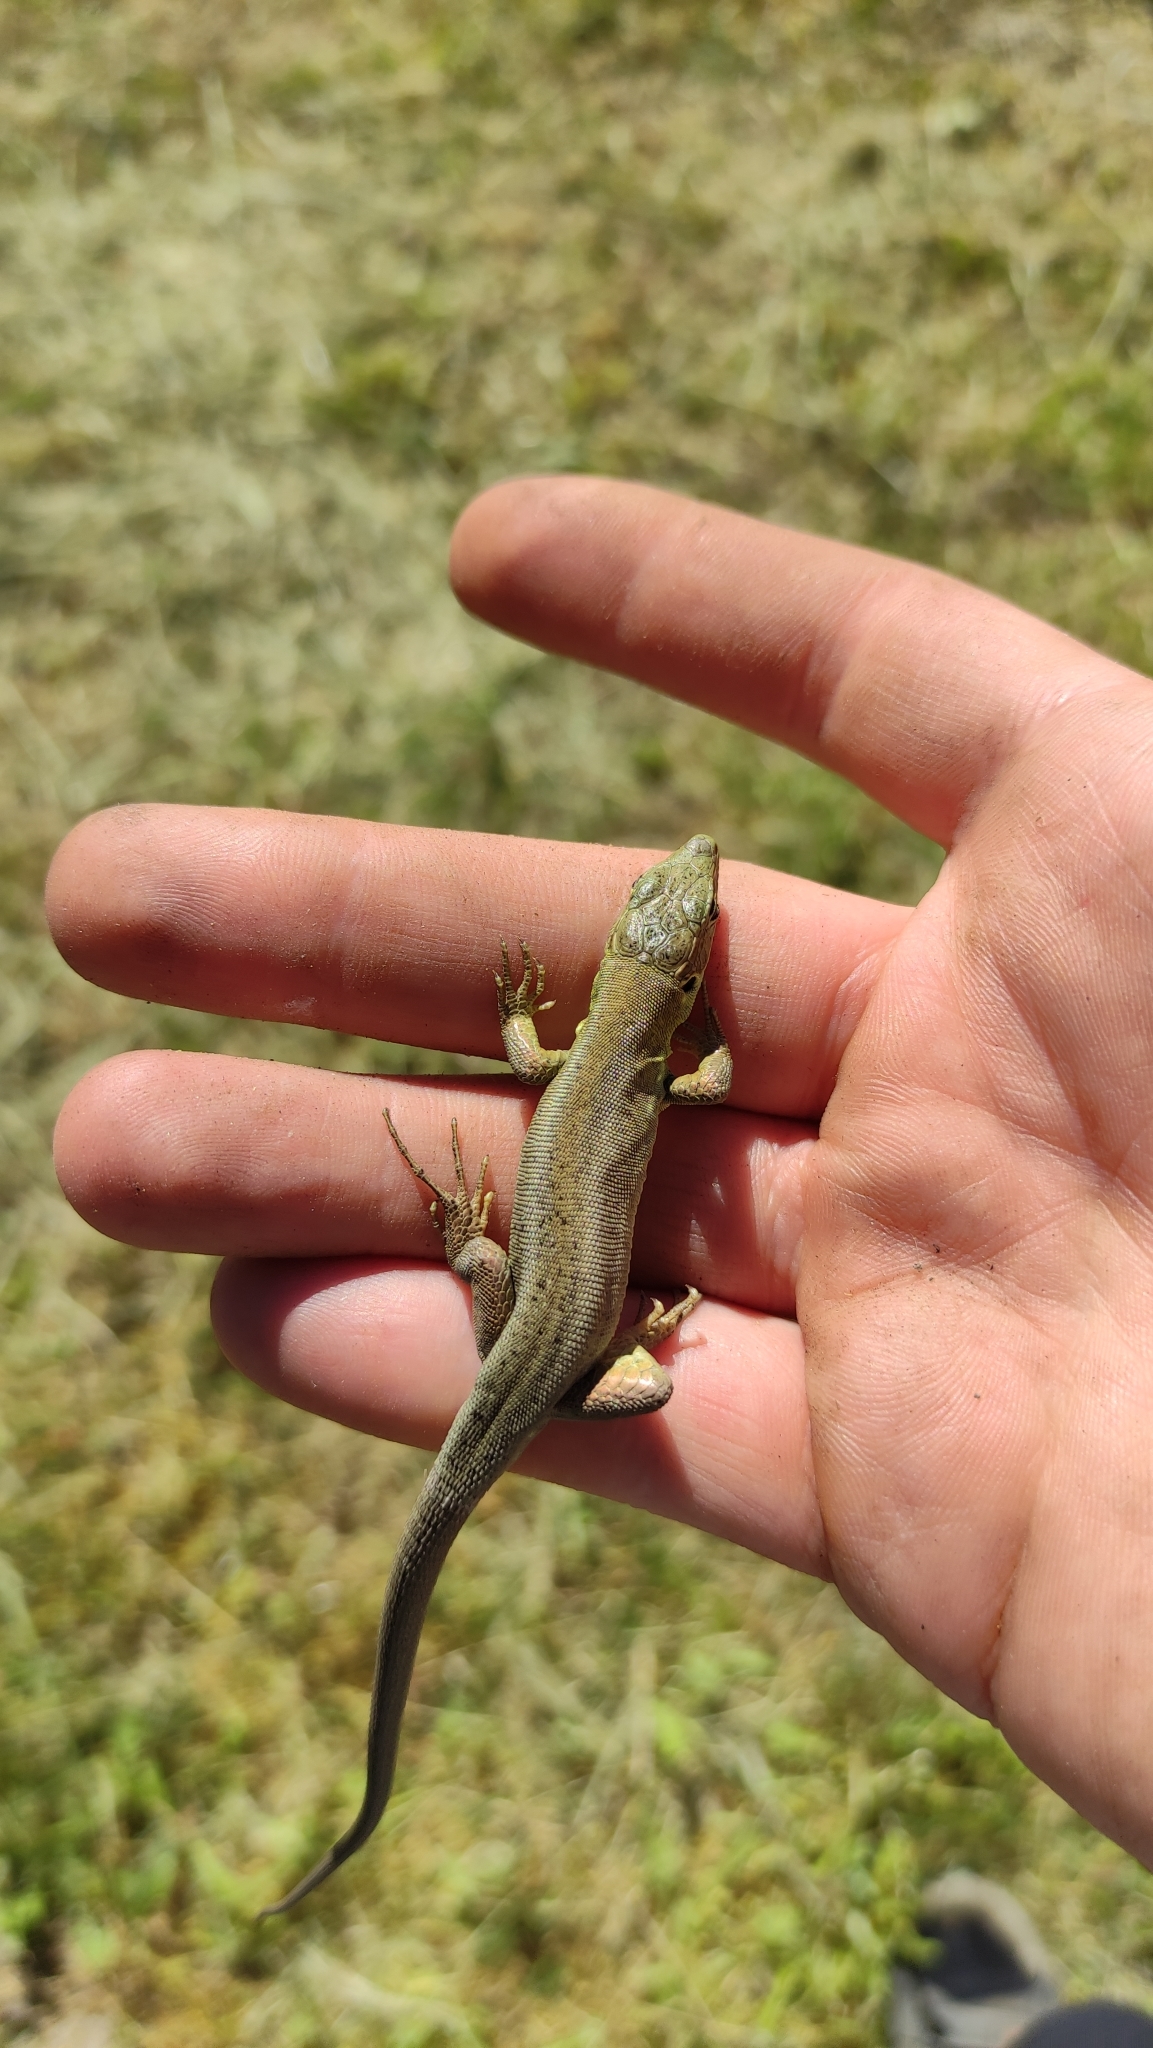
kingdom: Animalia
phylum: Chordata
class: Squamata
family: Lacertidae
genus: Lacerta
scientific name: Lacerta viridis
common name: European green lizard
